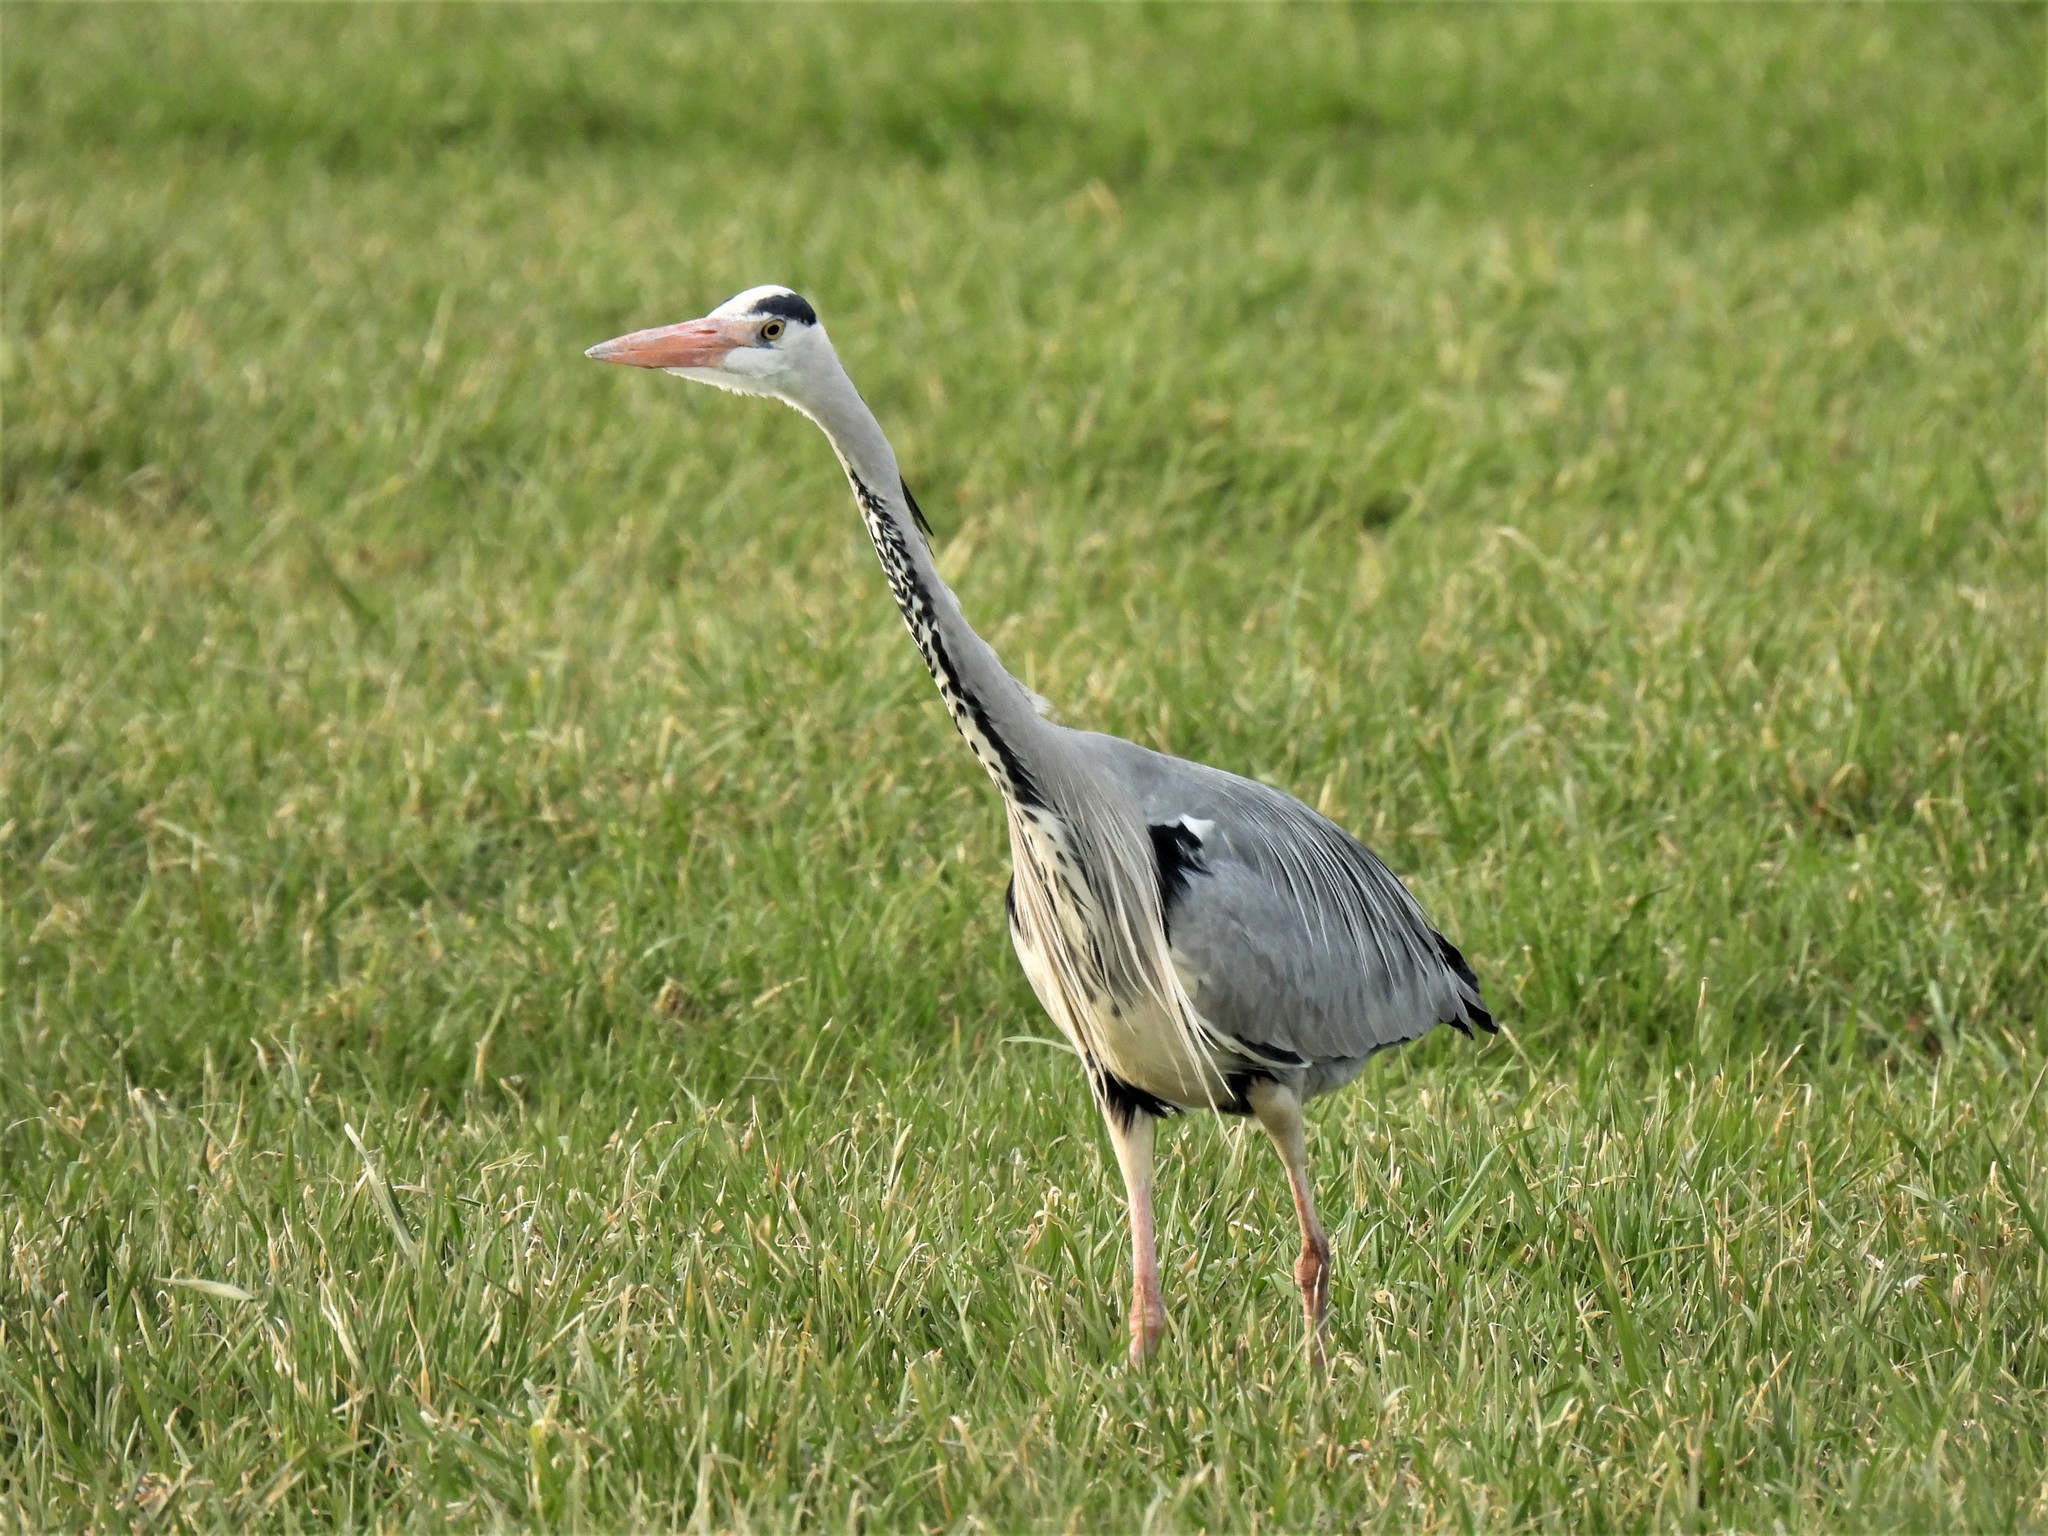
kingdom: Animalia
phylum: Chordata
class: Aves
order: Pelecaniformes
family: Ardeidae
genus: Ardea
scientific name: Ardea cinerea
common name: Grey heron
